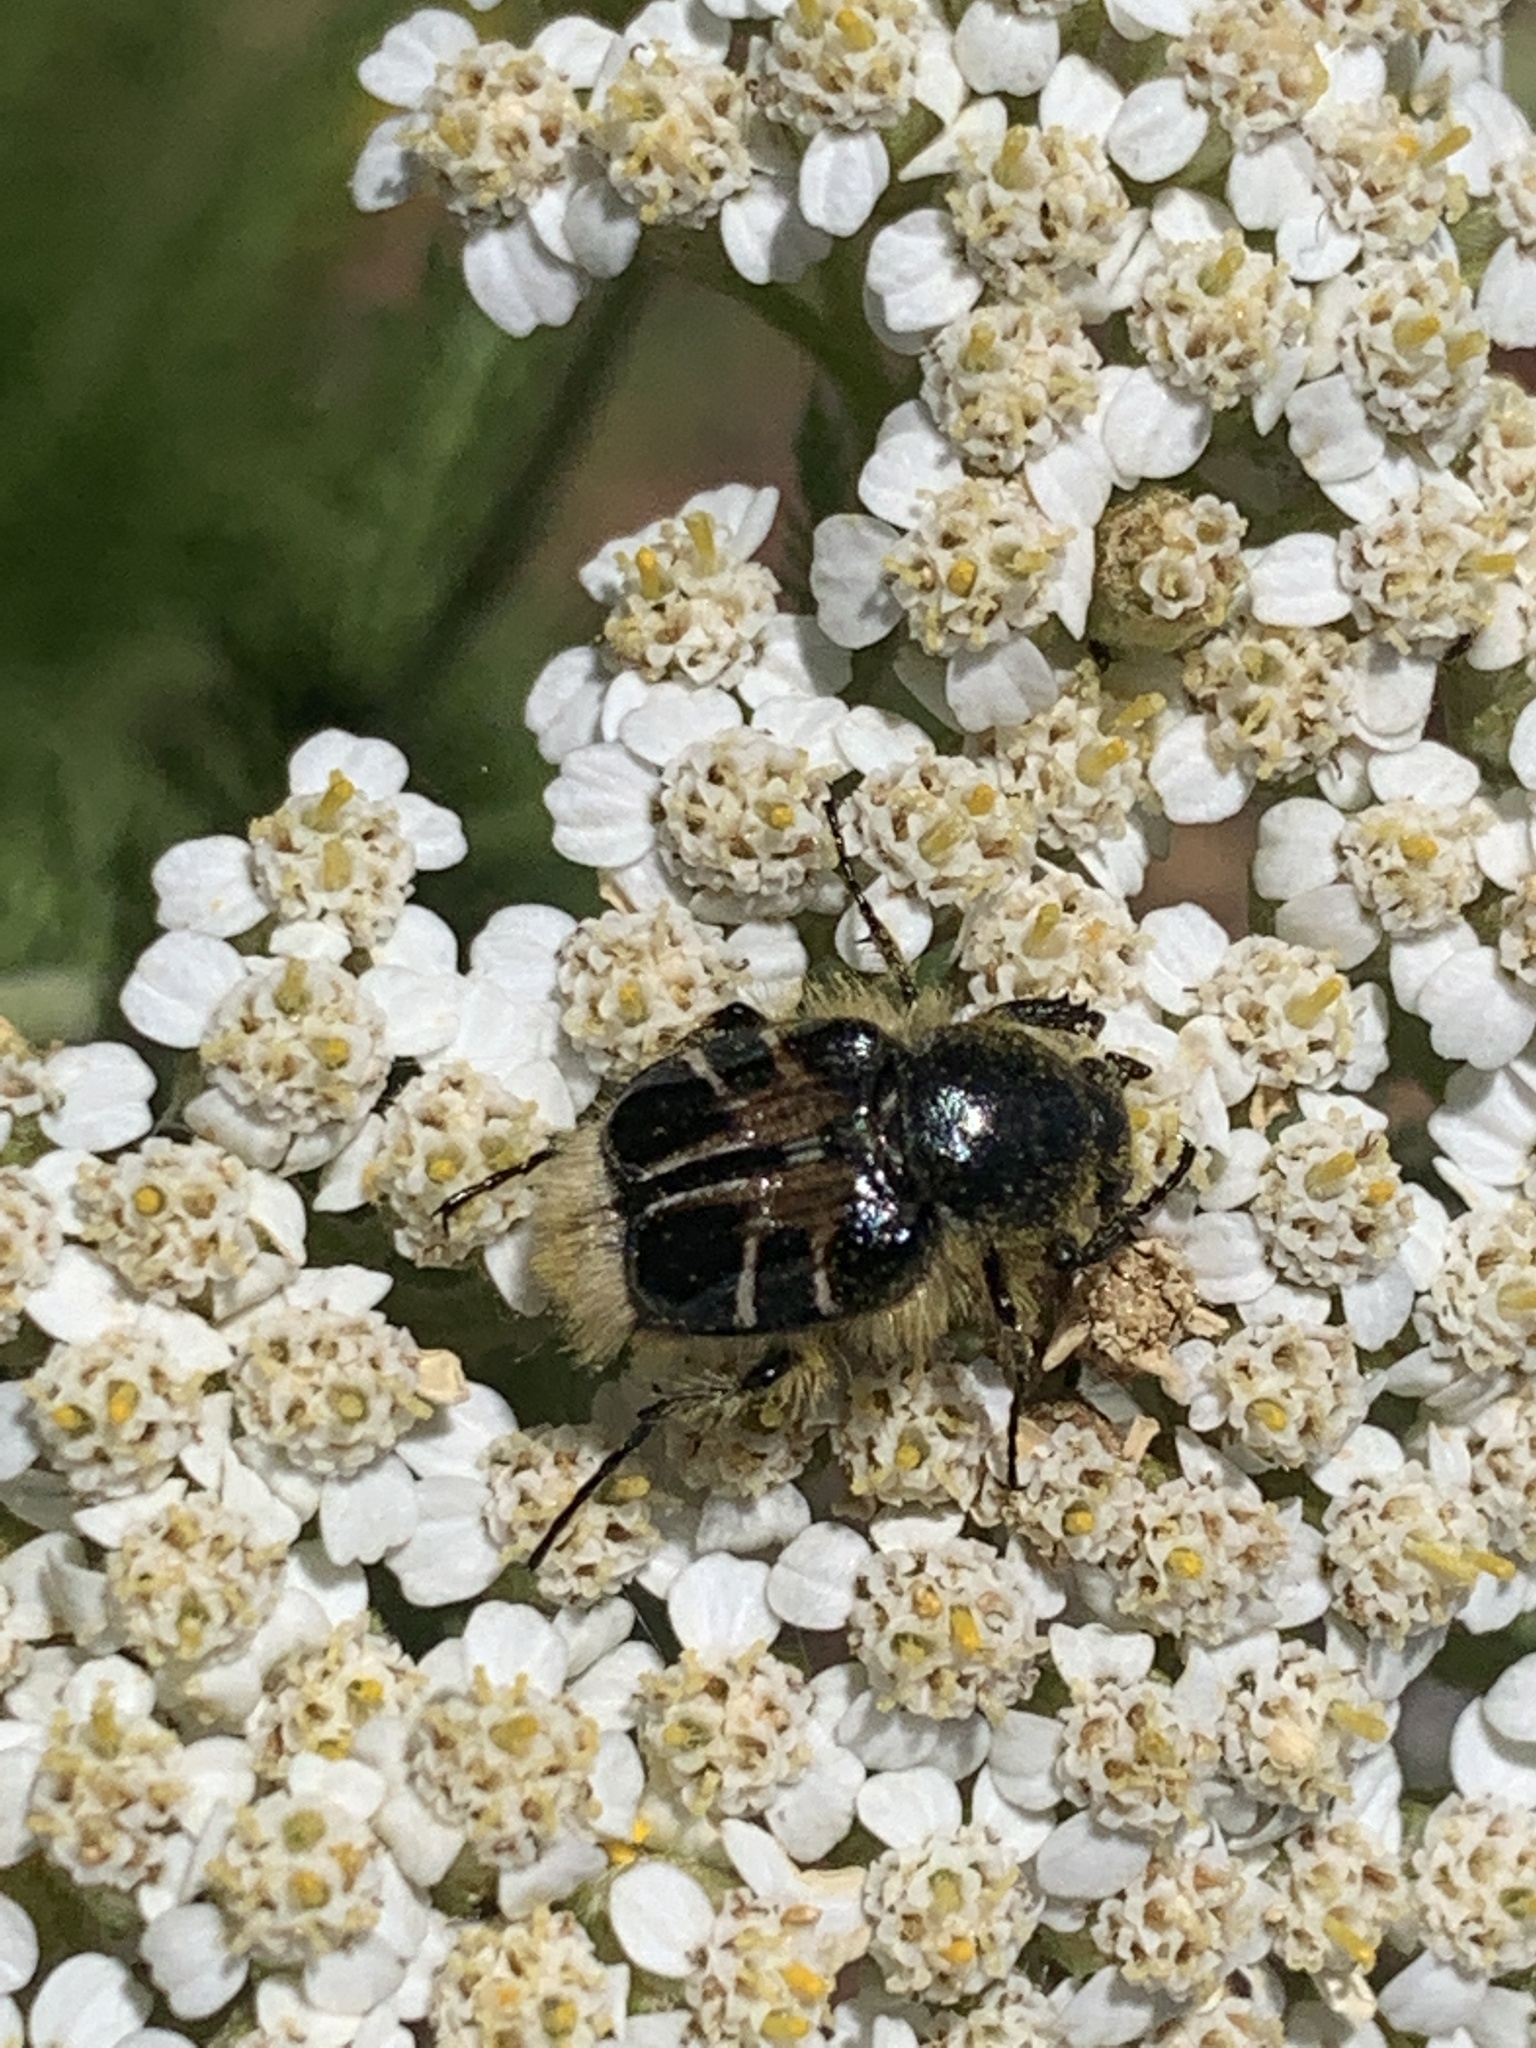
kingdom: Animalia
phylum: Arthropoda
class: Insecta
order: Coleoptera
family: Scarabaeidae
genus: Trichiotinus
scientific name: Trichiotinus assimilis
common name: Bee-mimic beetle
